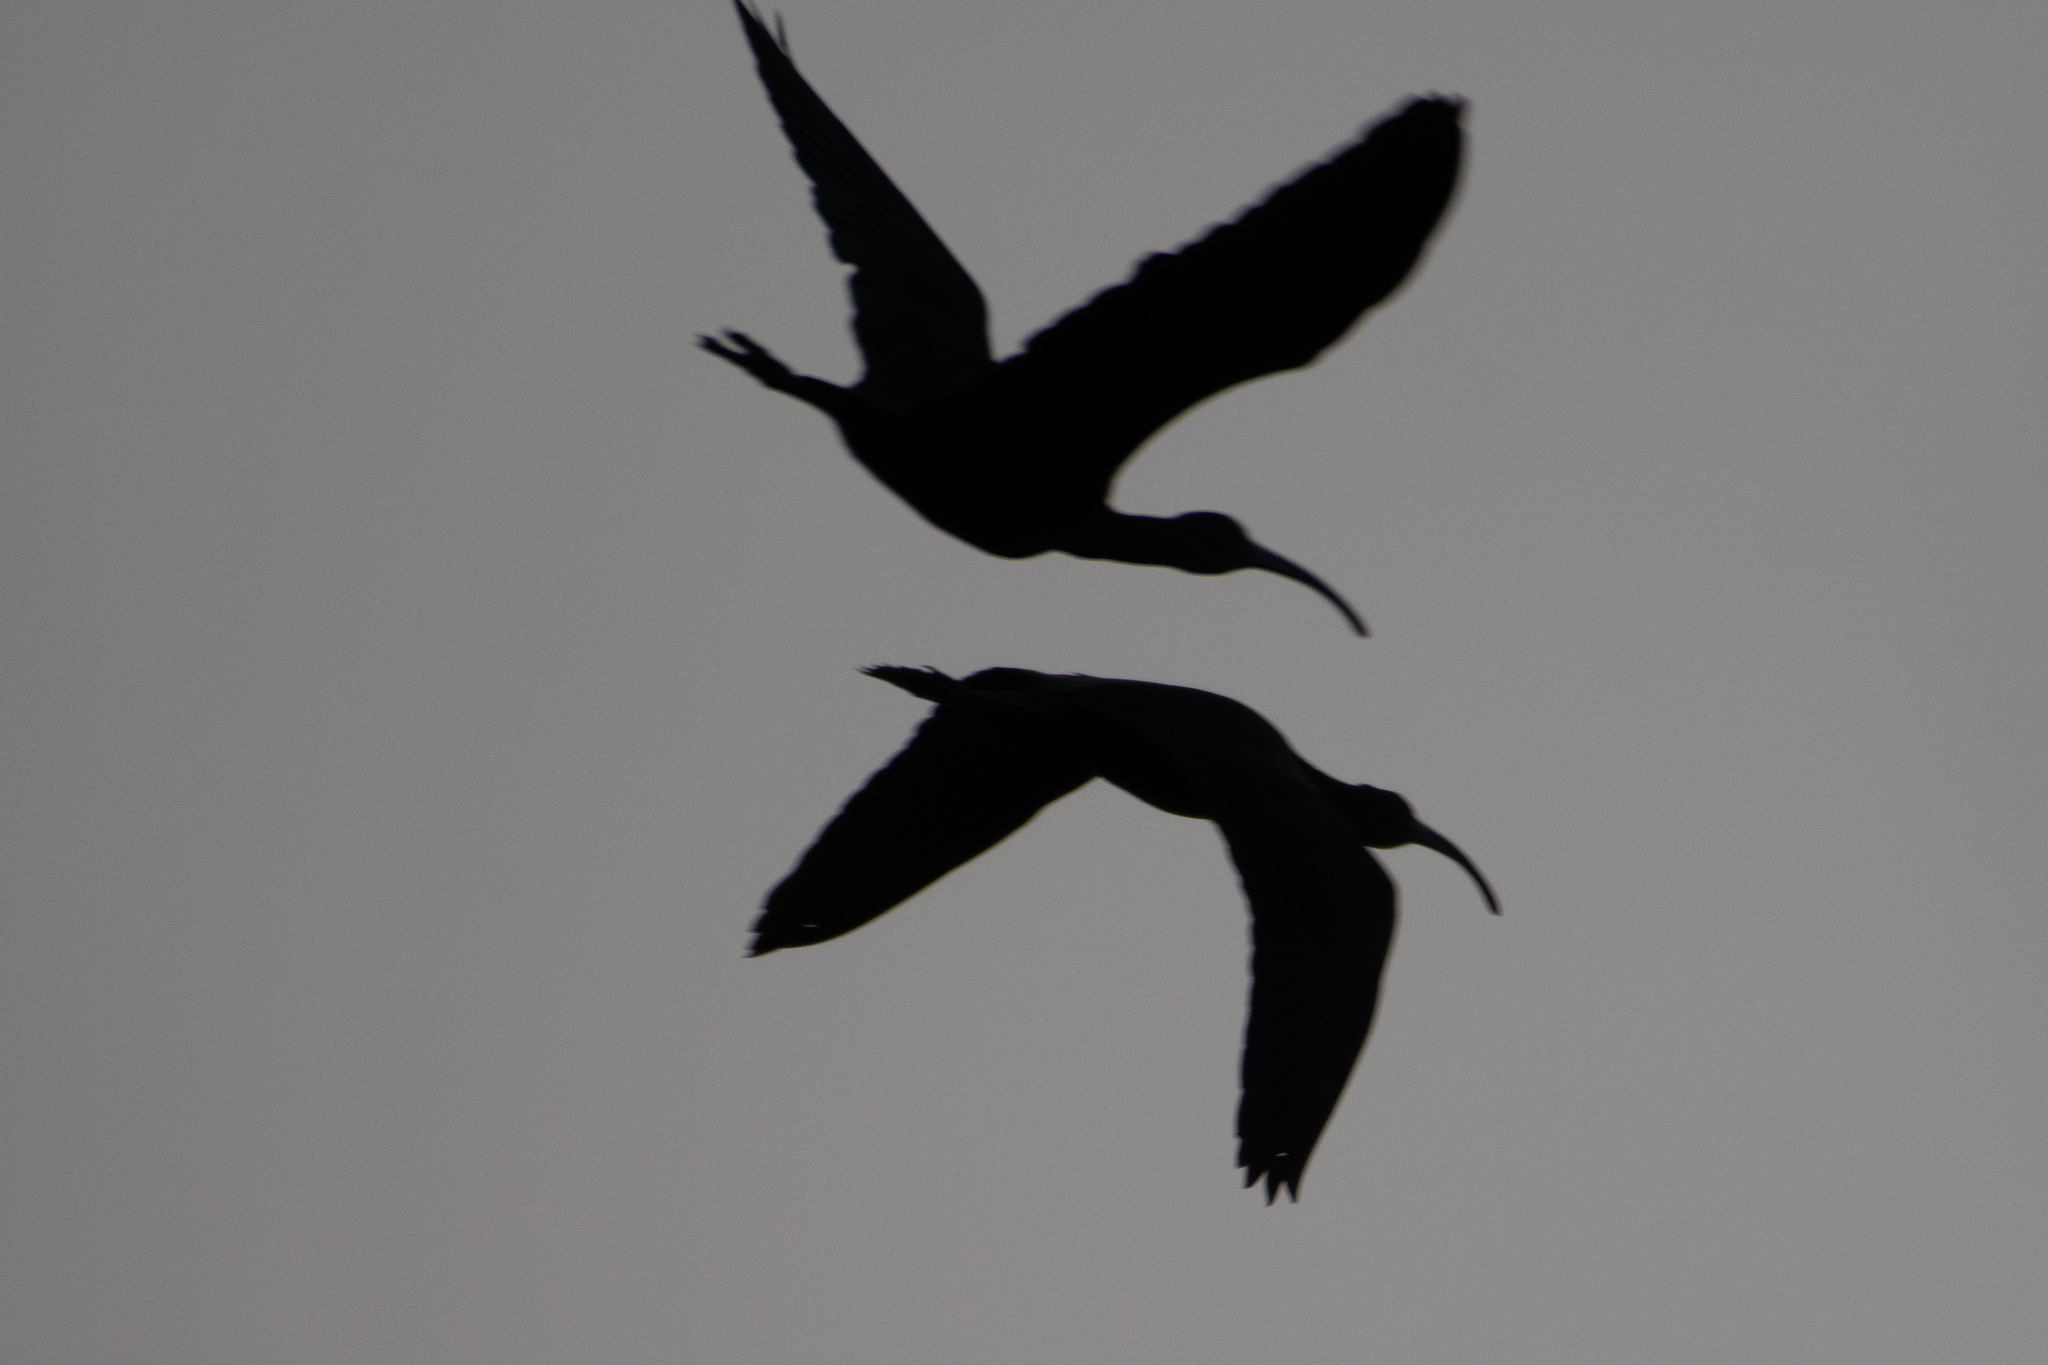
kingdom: Animalia
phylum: Chordata
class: Aves
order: Pelecaniformes
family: Threskiornithidae
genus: Plegadis
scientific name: Plegadis chihi
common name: White-faced ibis
